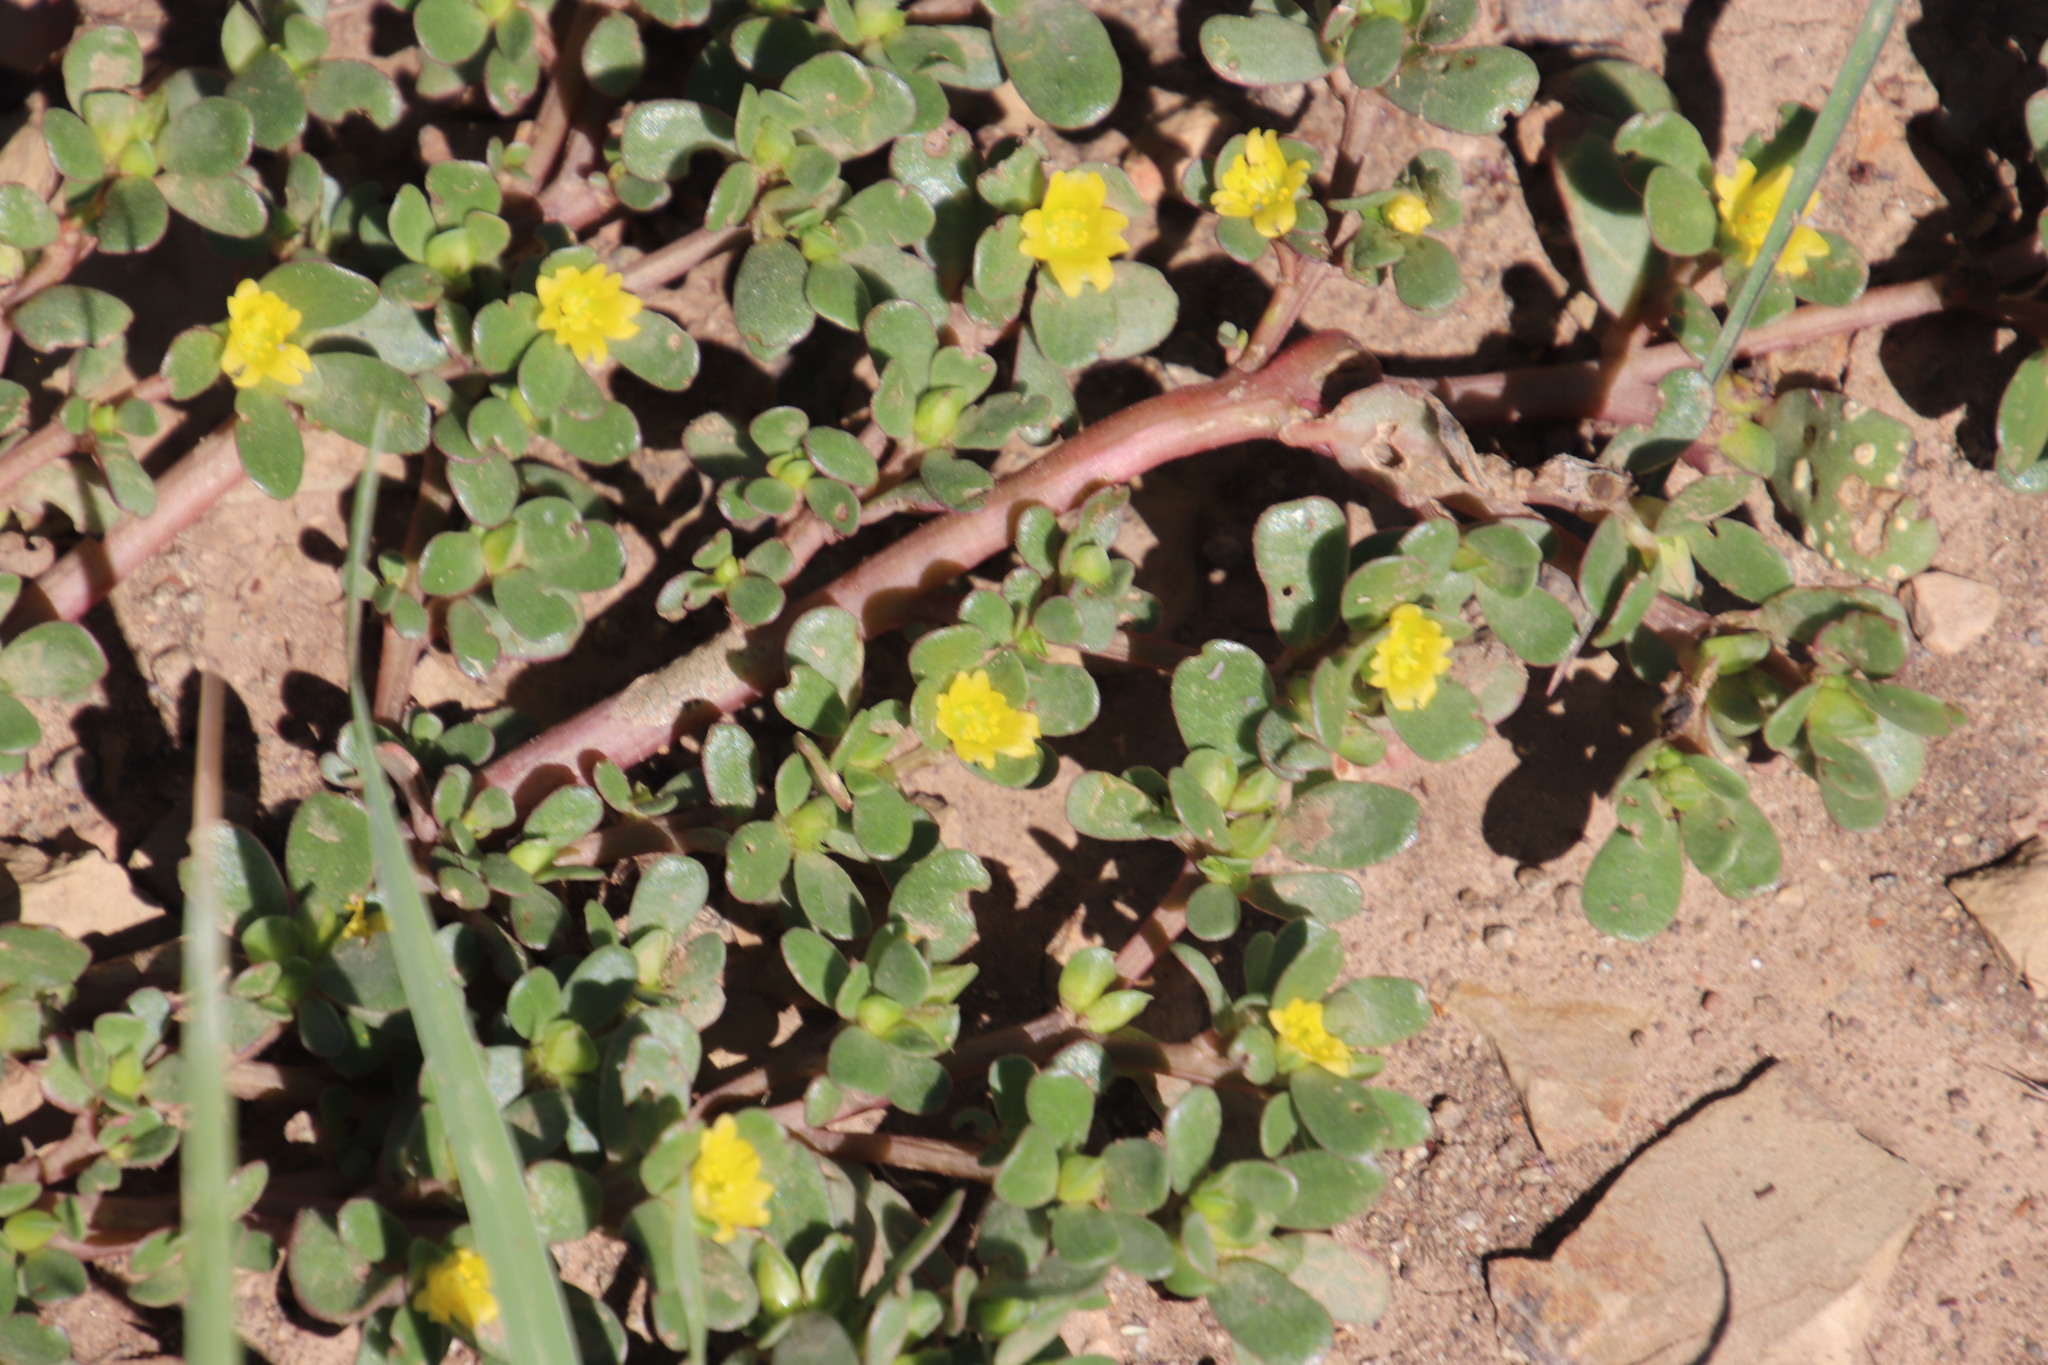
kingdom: Plantae
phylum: Tracheophyta
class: Magnoliopsida
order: Caryophyllales
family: Portulacaceae
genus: Portulaca
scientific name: Portulaca oleracea
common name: Common purslane
